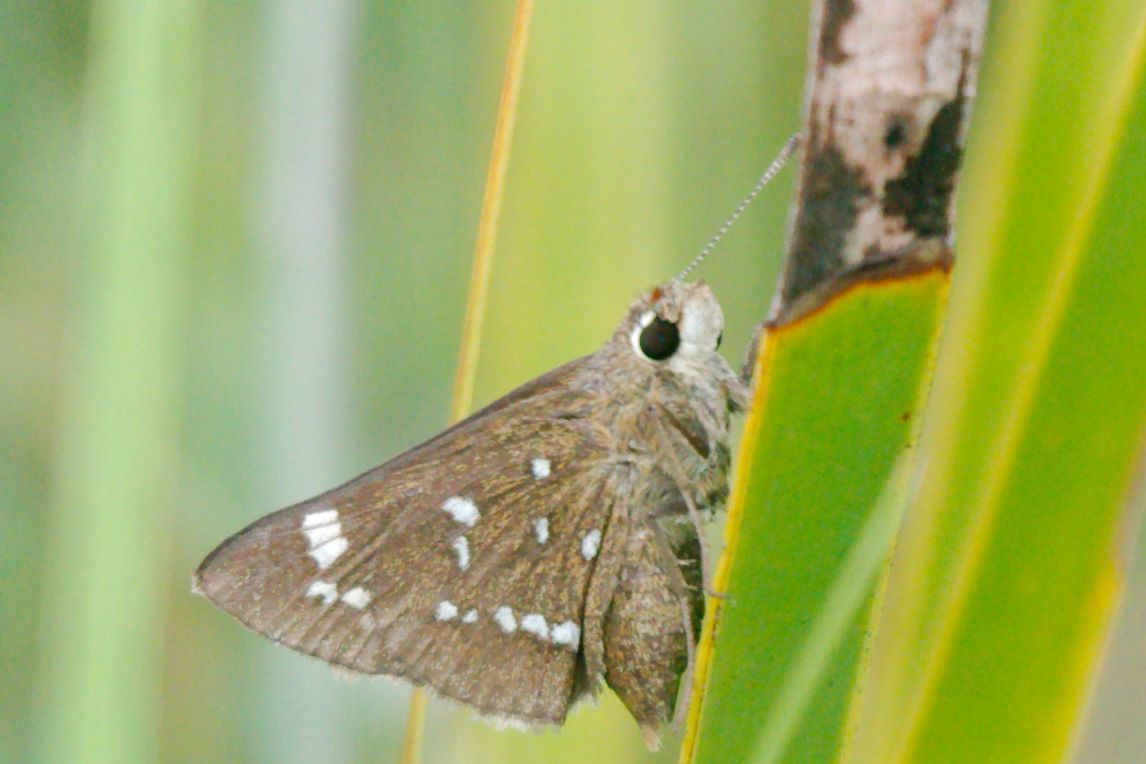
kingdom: Animalia
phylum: Arthropoda
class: Insecta
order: Lepidoptera
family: Hesperiidae
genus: Atrytonopsis
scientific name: Atrytonopsis loammi
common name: Loammi skipper
